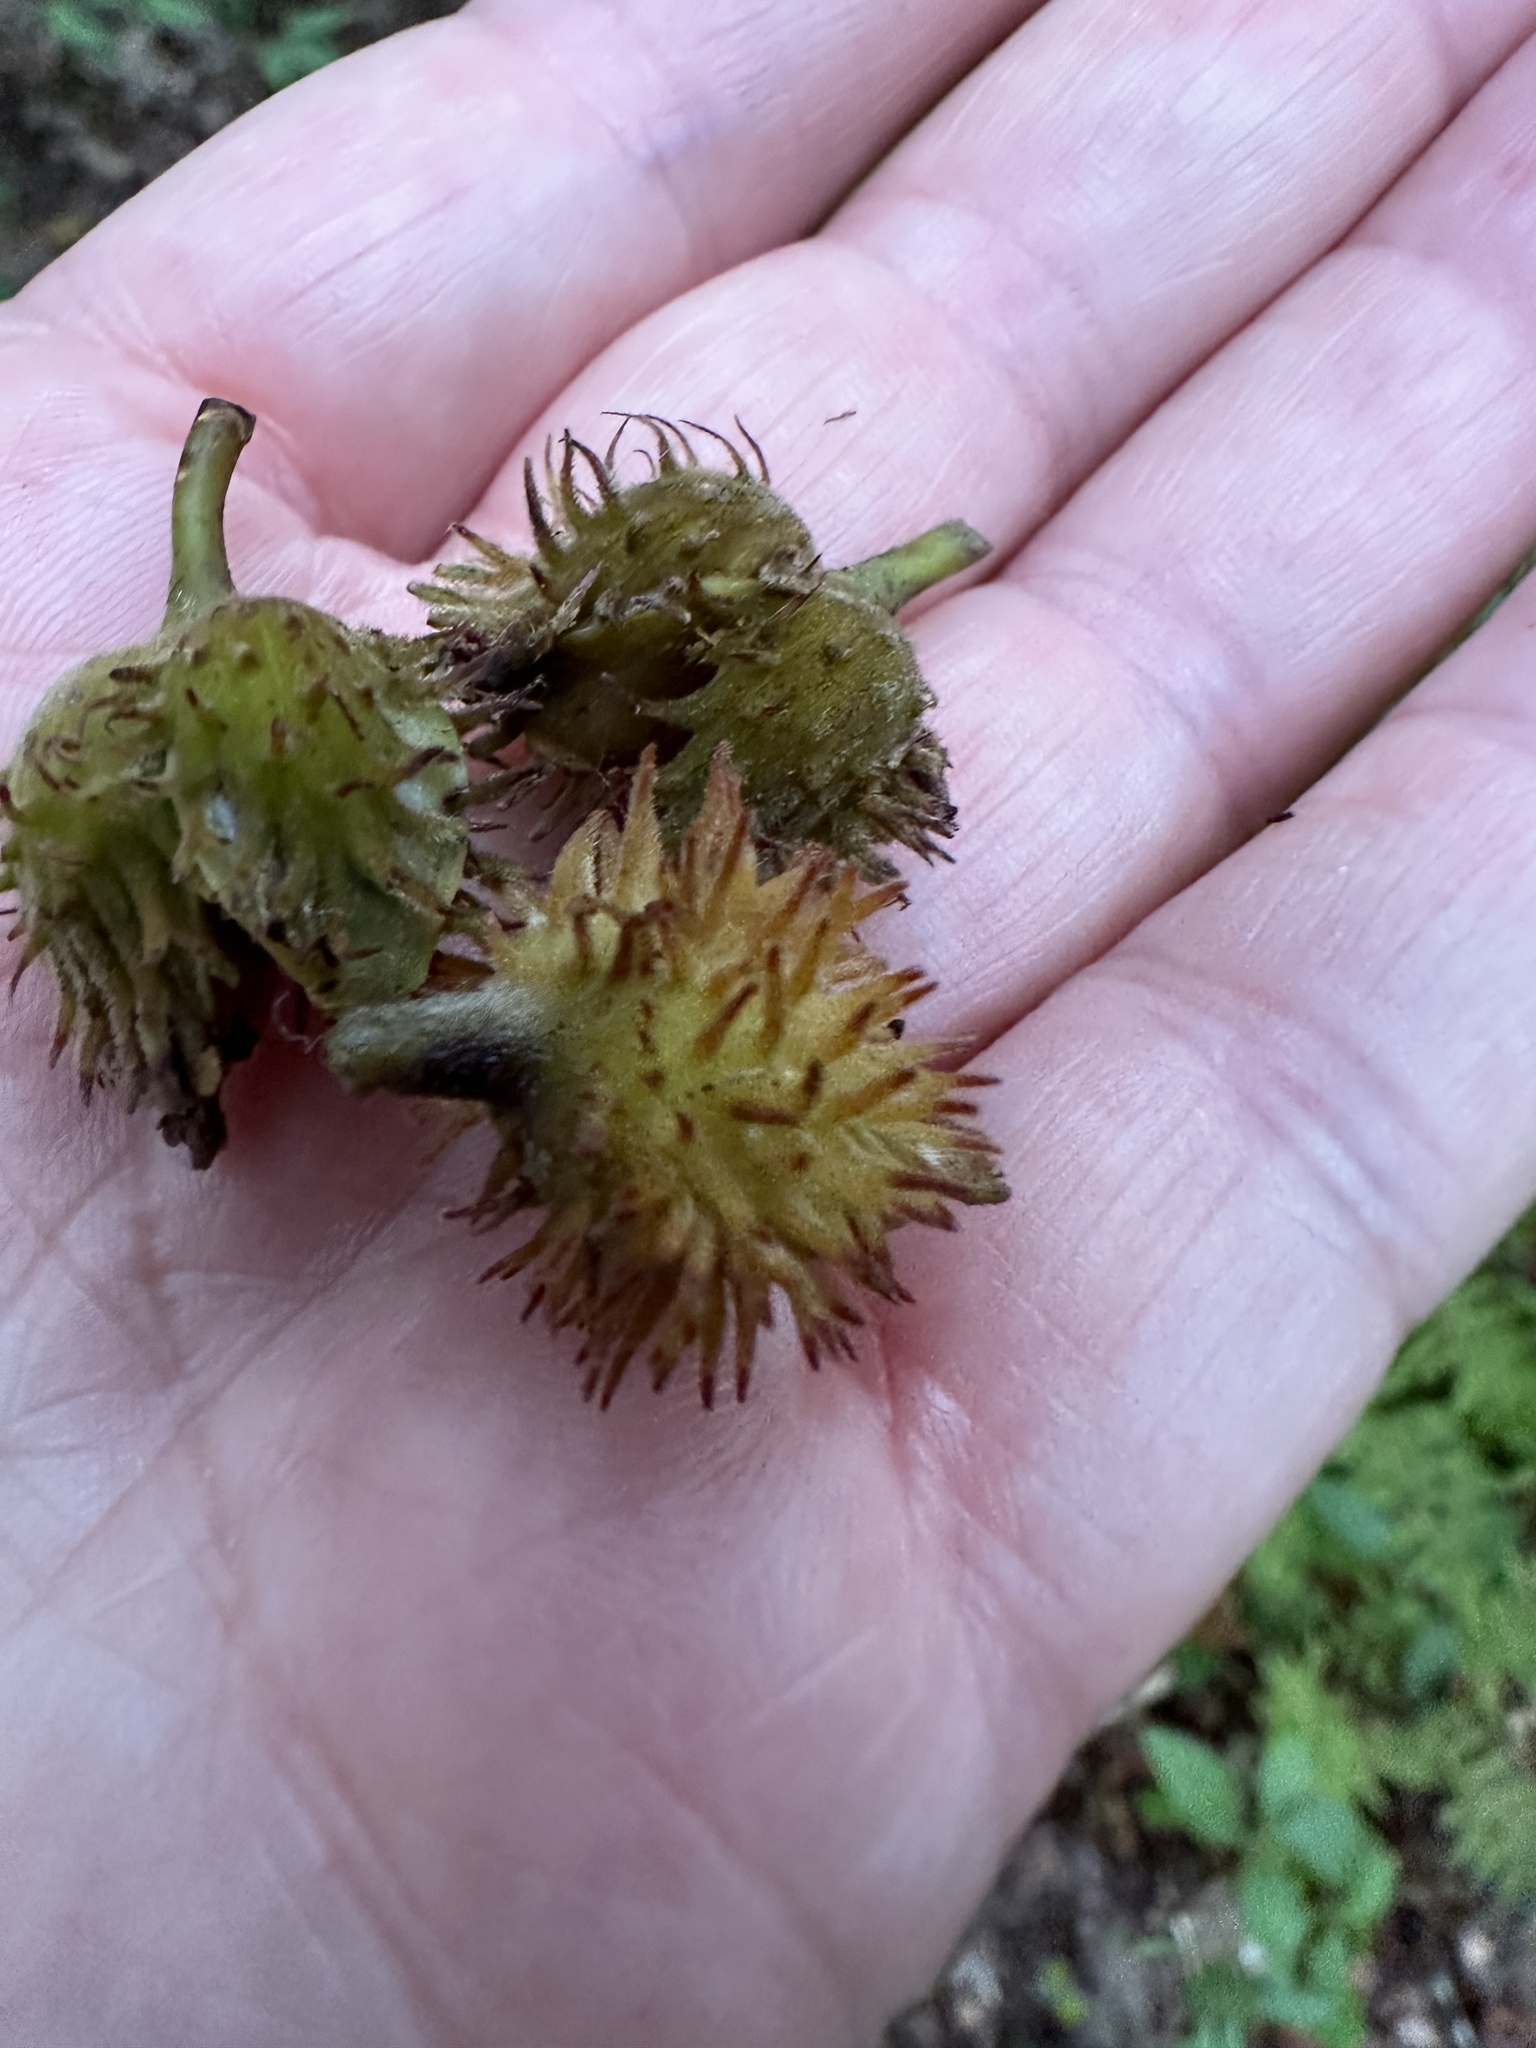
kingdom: Plantae
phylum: Tracheophyta
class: Magnoliopsida
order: Fagales
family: Fagaceae
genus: Fagus
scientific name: Fagus grandifolia
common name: American beech
